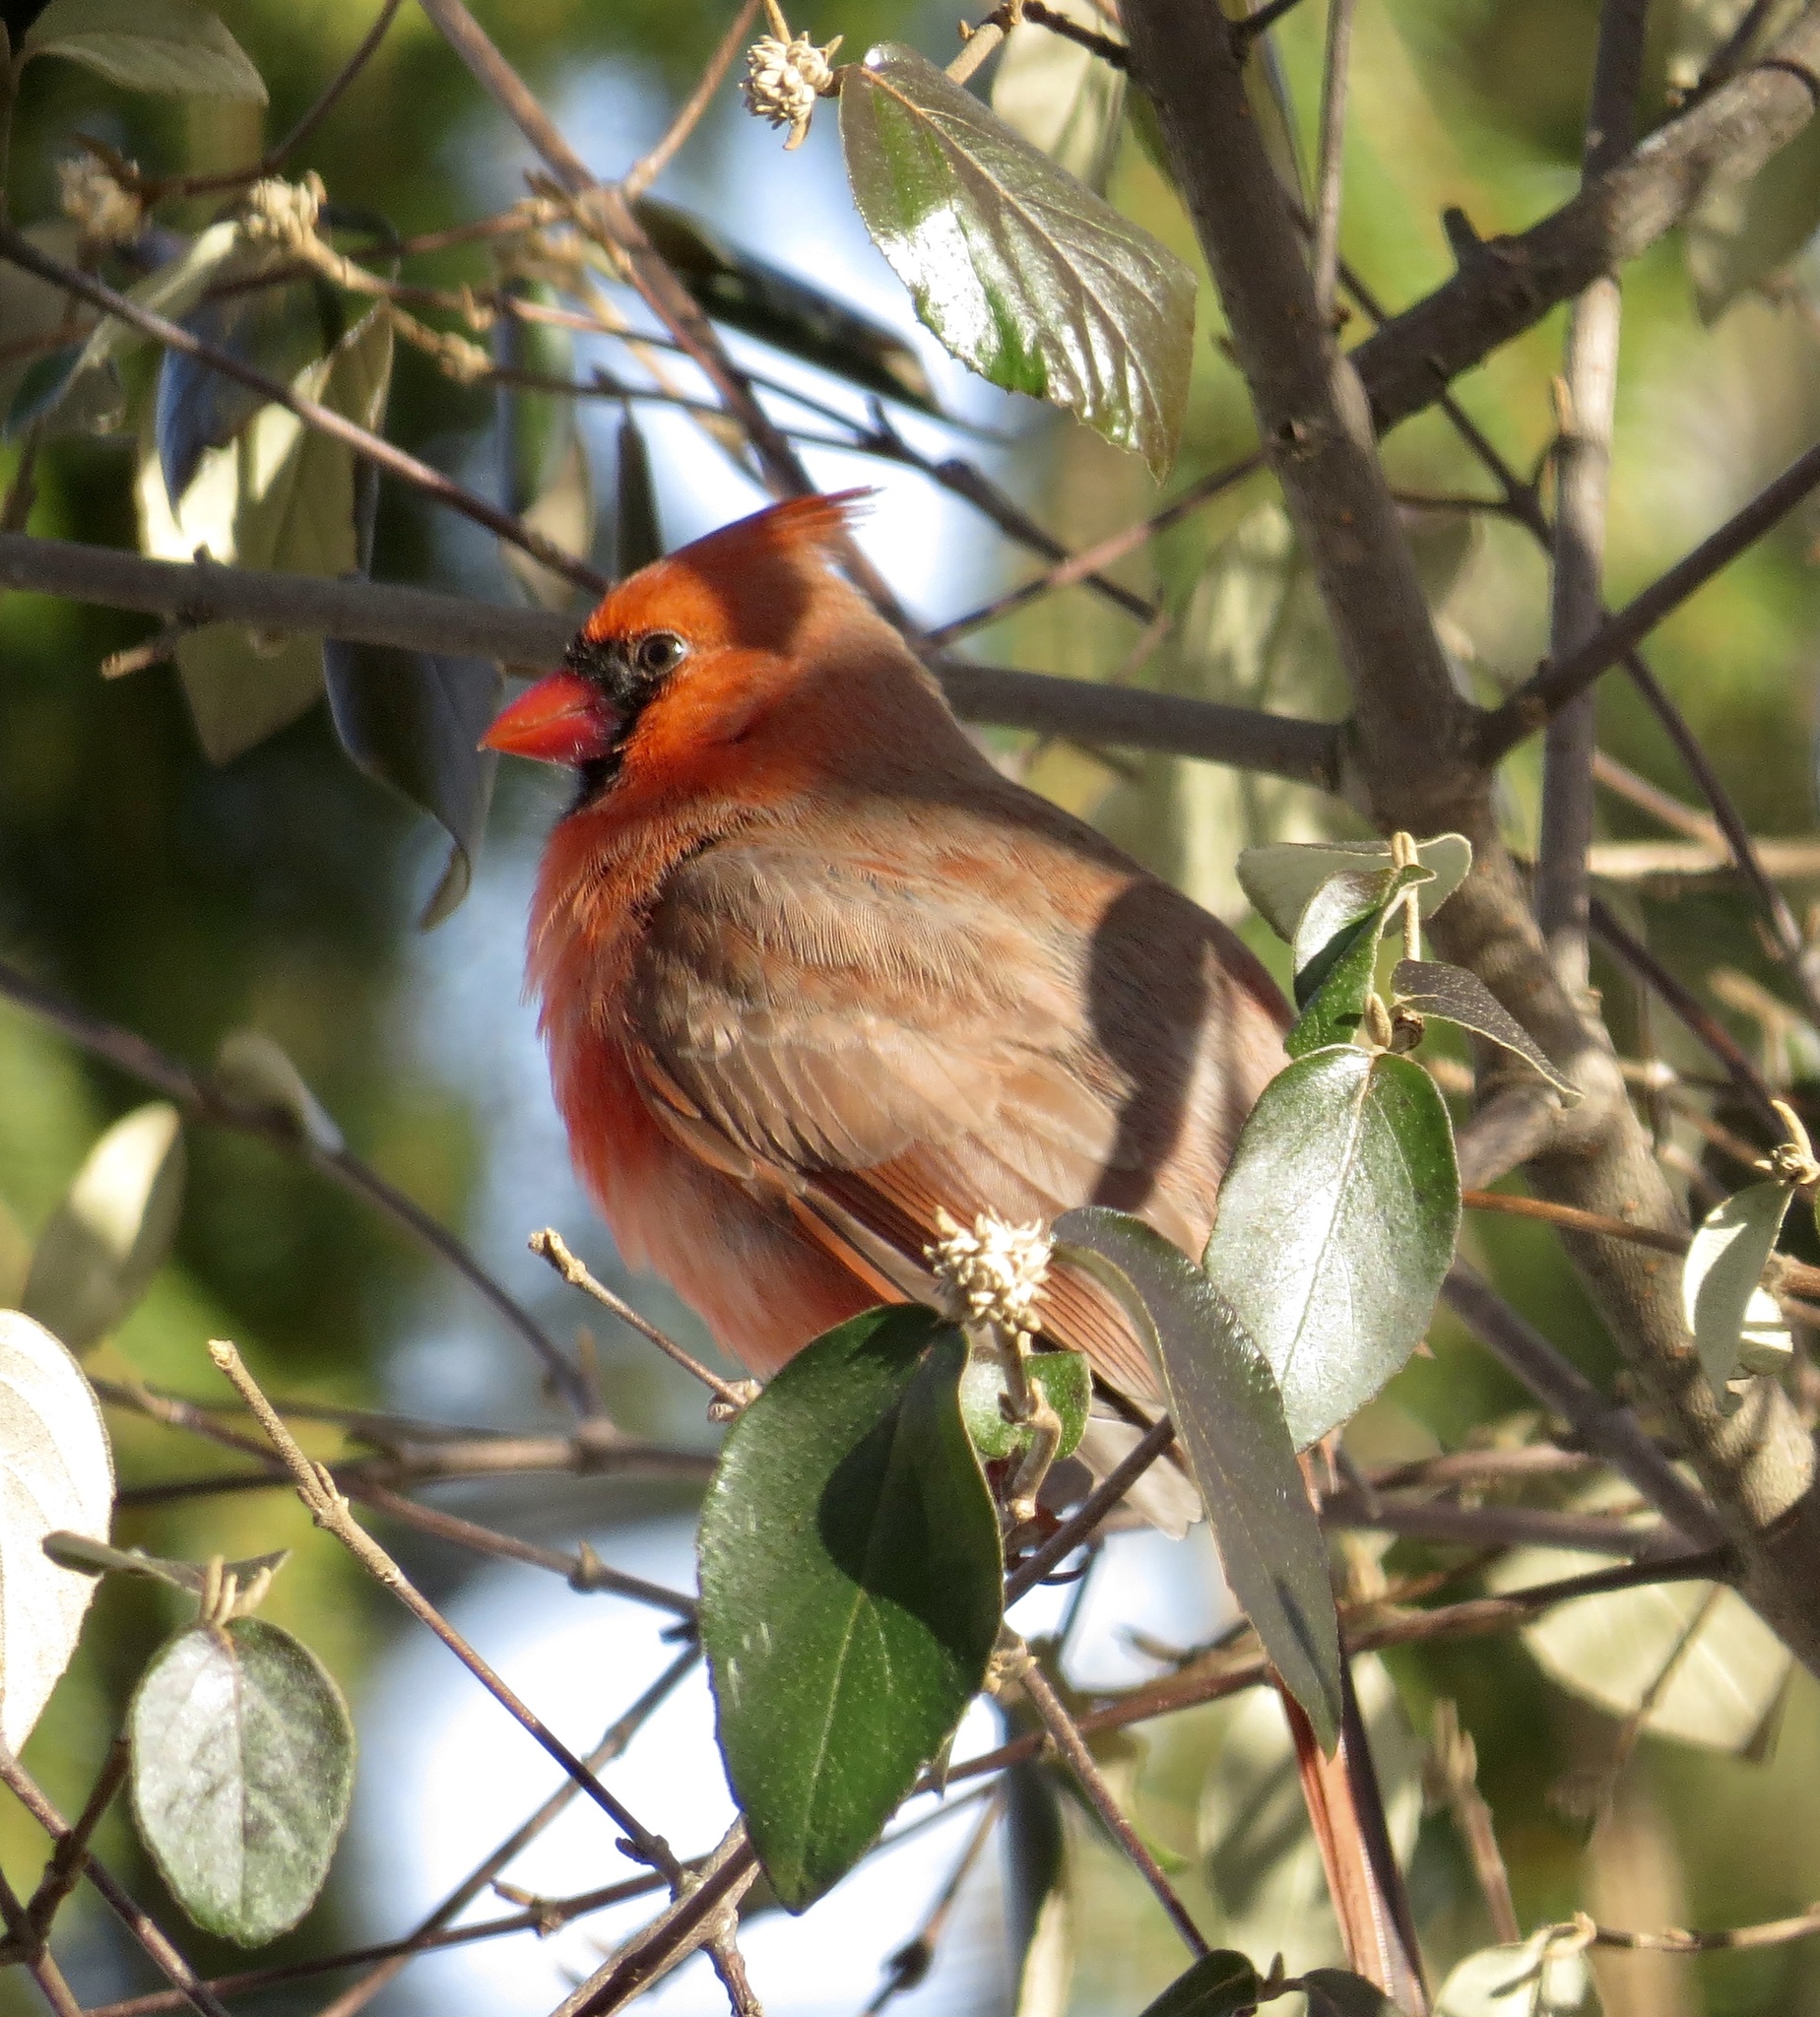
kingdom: Animalia
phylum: Chordata
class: Aves
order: Passeriformes
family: Cardinalidae
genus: Cardinalis
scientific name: Cardinalis cardinalis
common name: Northern cardinal
